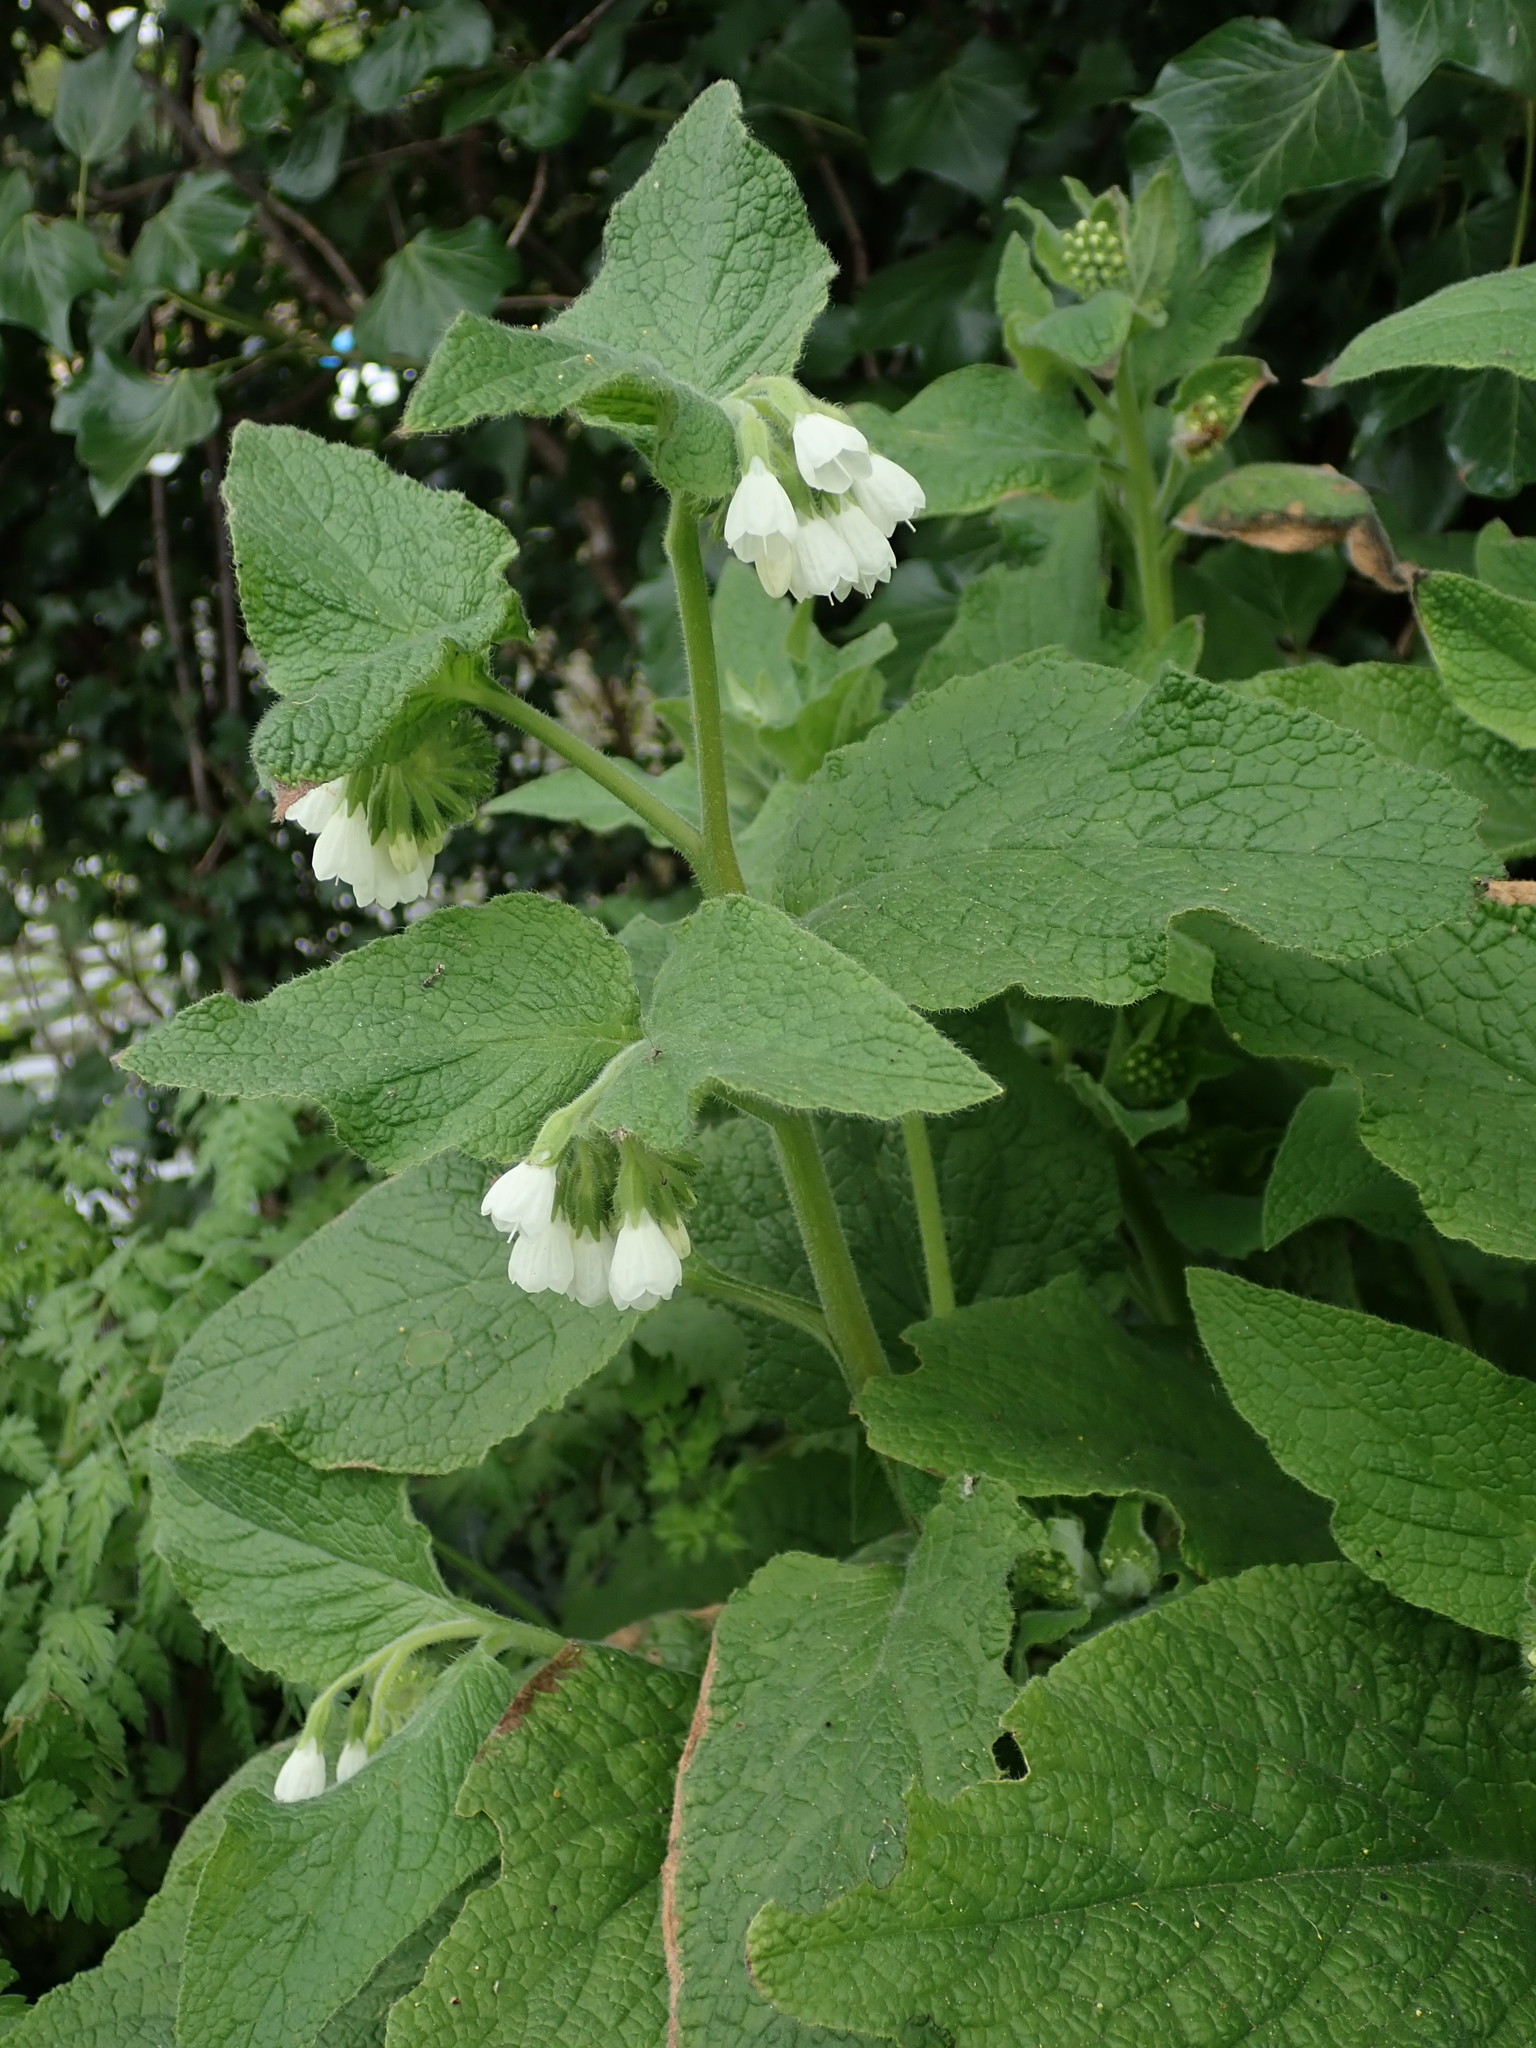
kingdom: Plantae
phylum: Tracheophyta
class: Magnoliopsida
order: Boraginales
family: Boraginaceae
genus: Symphytum
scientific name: Symphytum orientale
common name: White comfrey
